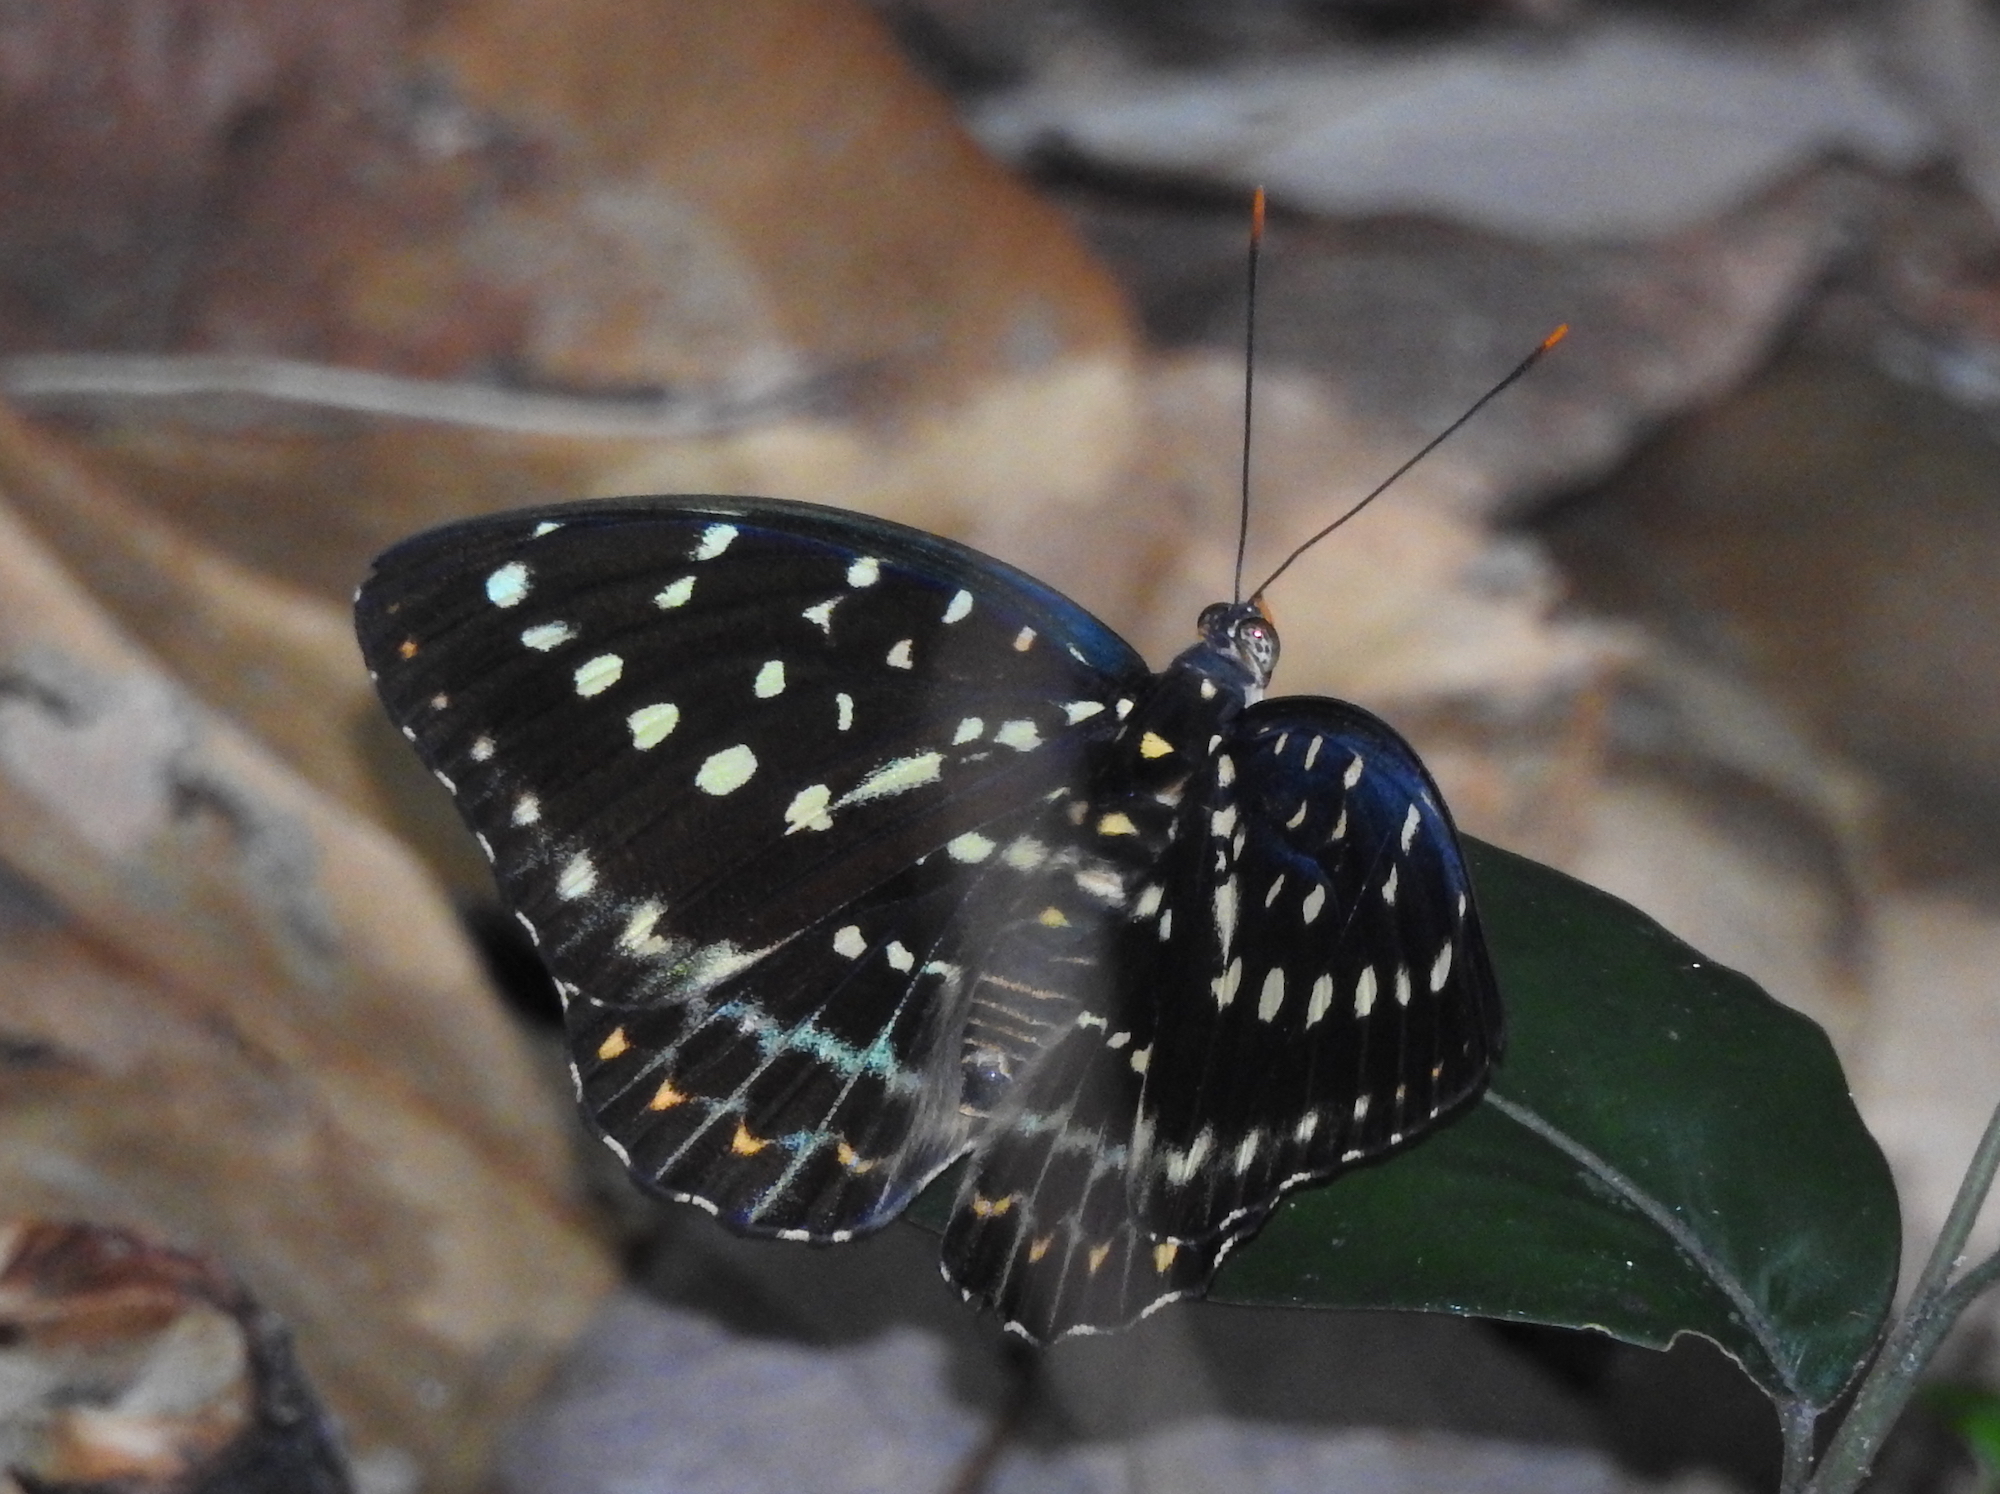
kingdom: Animalia
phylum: Arthropoda
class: Insecta
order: Lepidoptera
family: Nymphalidae
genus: Lexias
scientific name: Lexias pardalis
